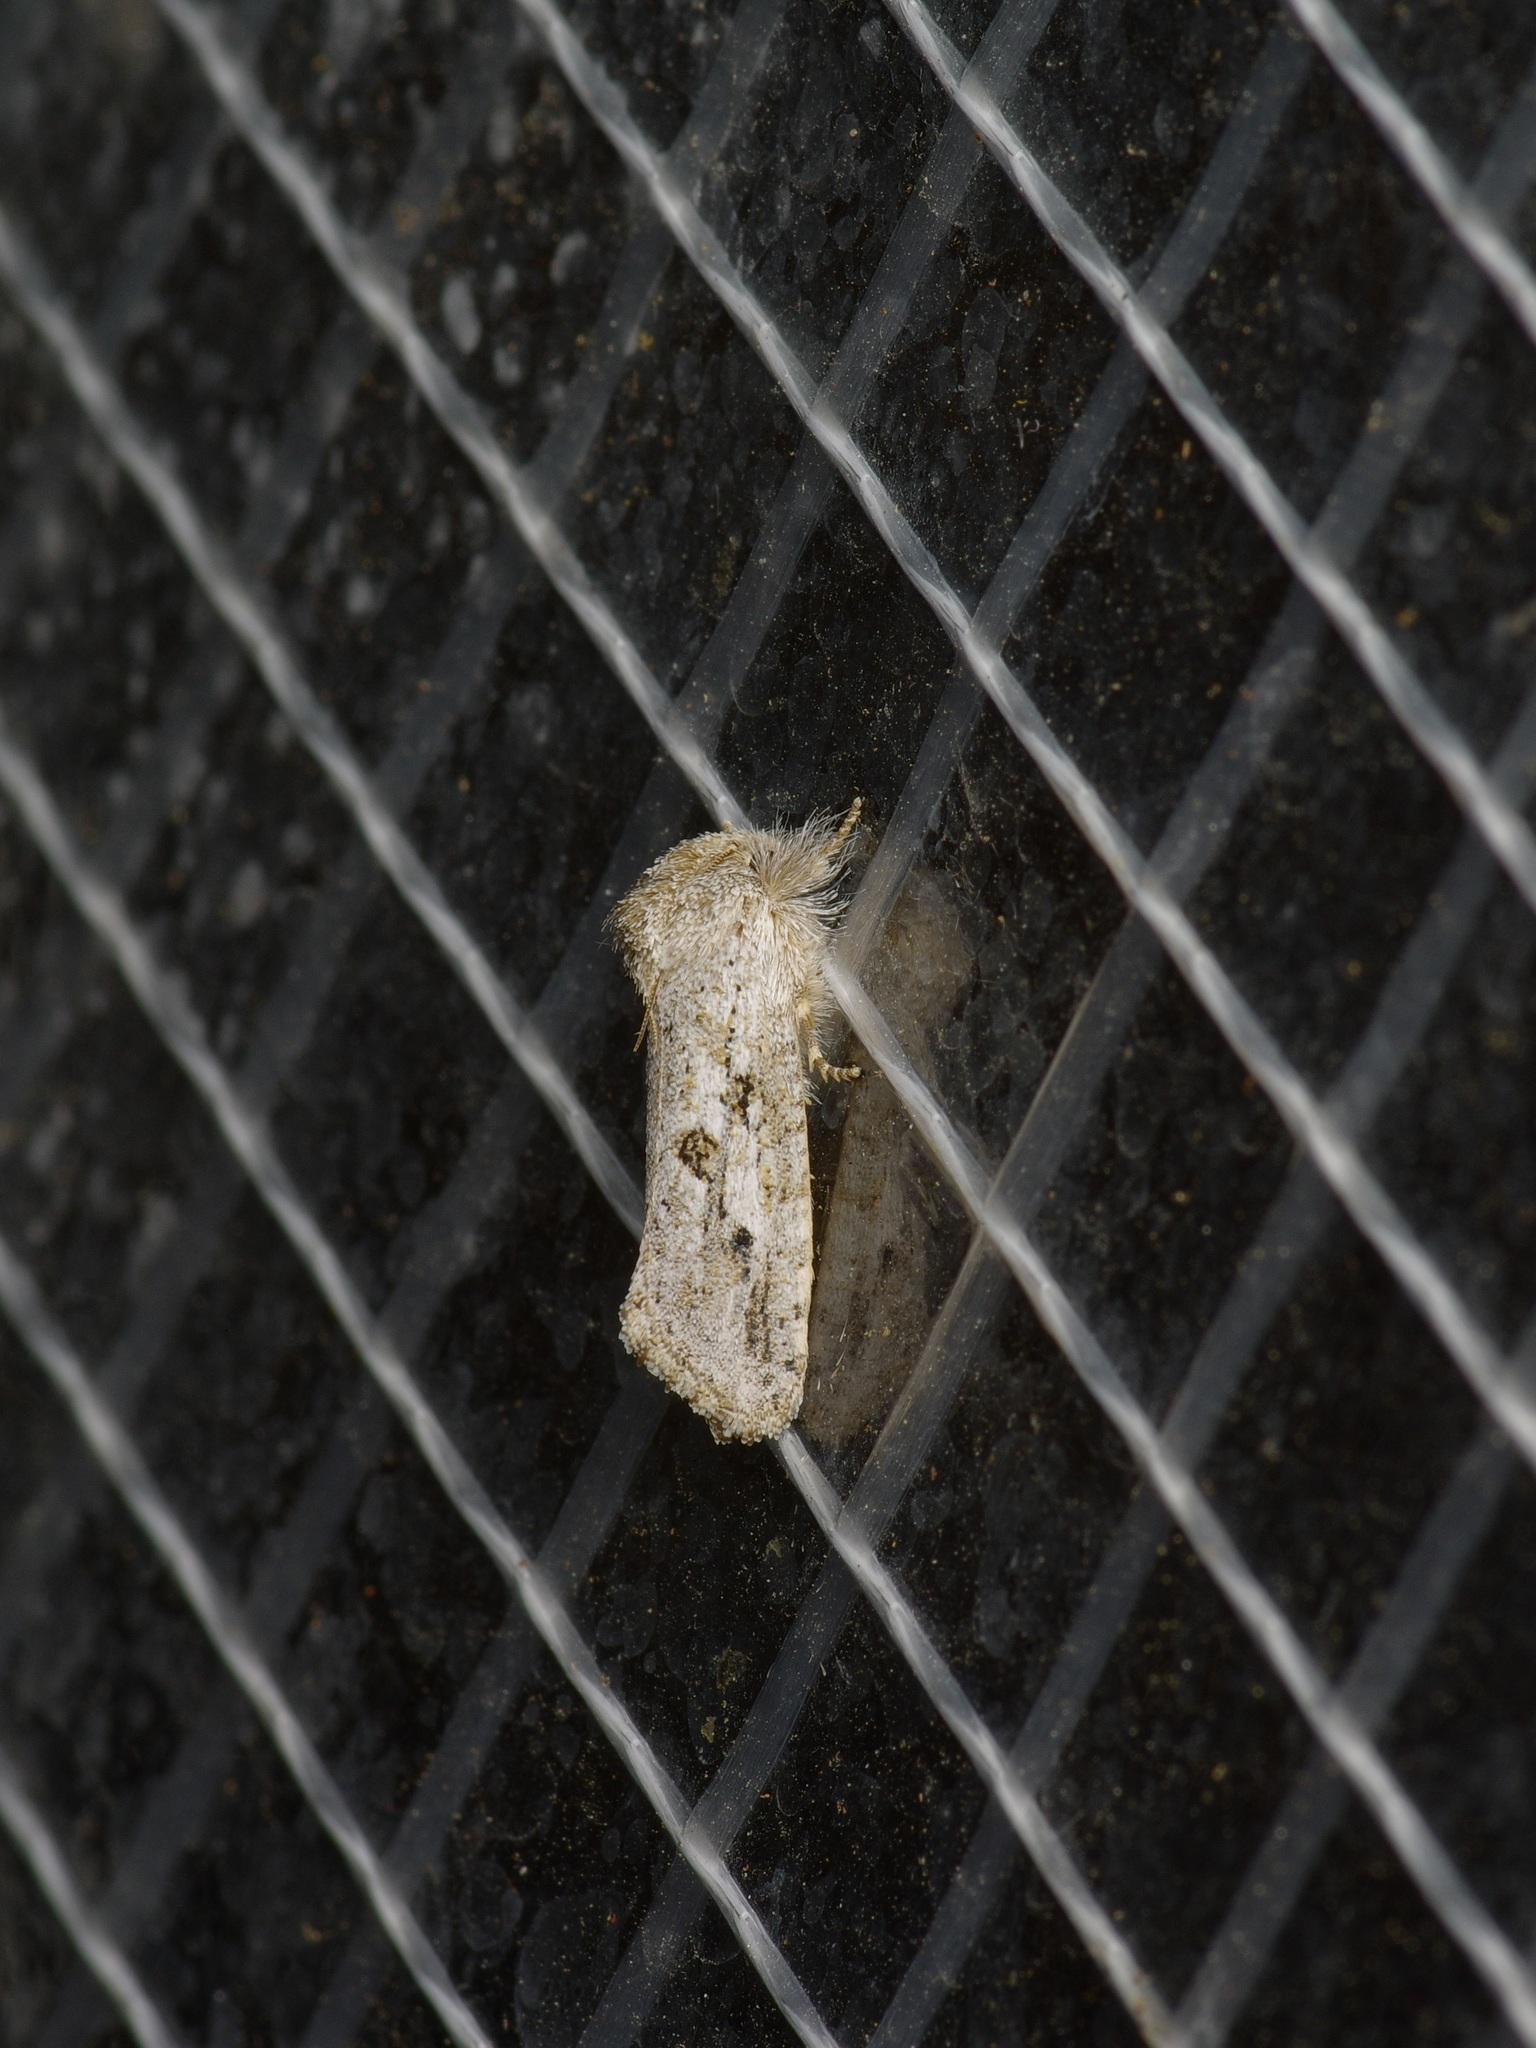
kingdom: Animalia
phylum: Arthropoda
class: Insecta
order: Lepidoptera
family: Tineidae
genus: Acrolophus
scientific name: Acrolophus griseus
